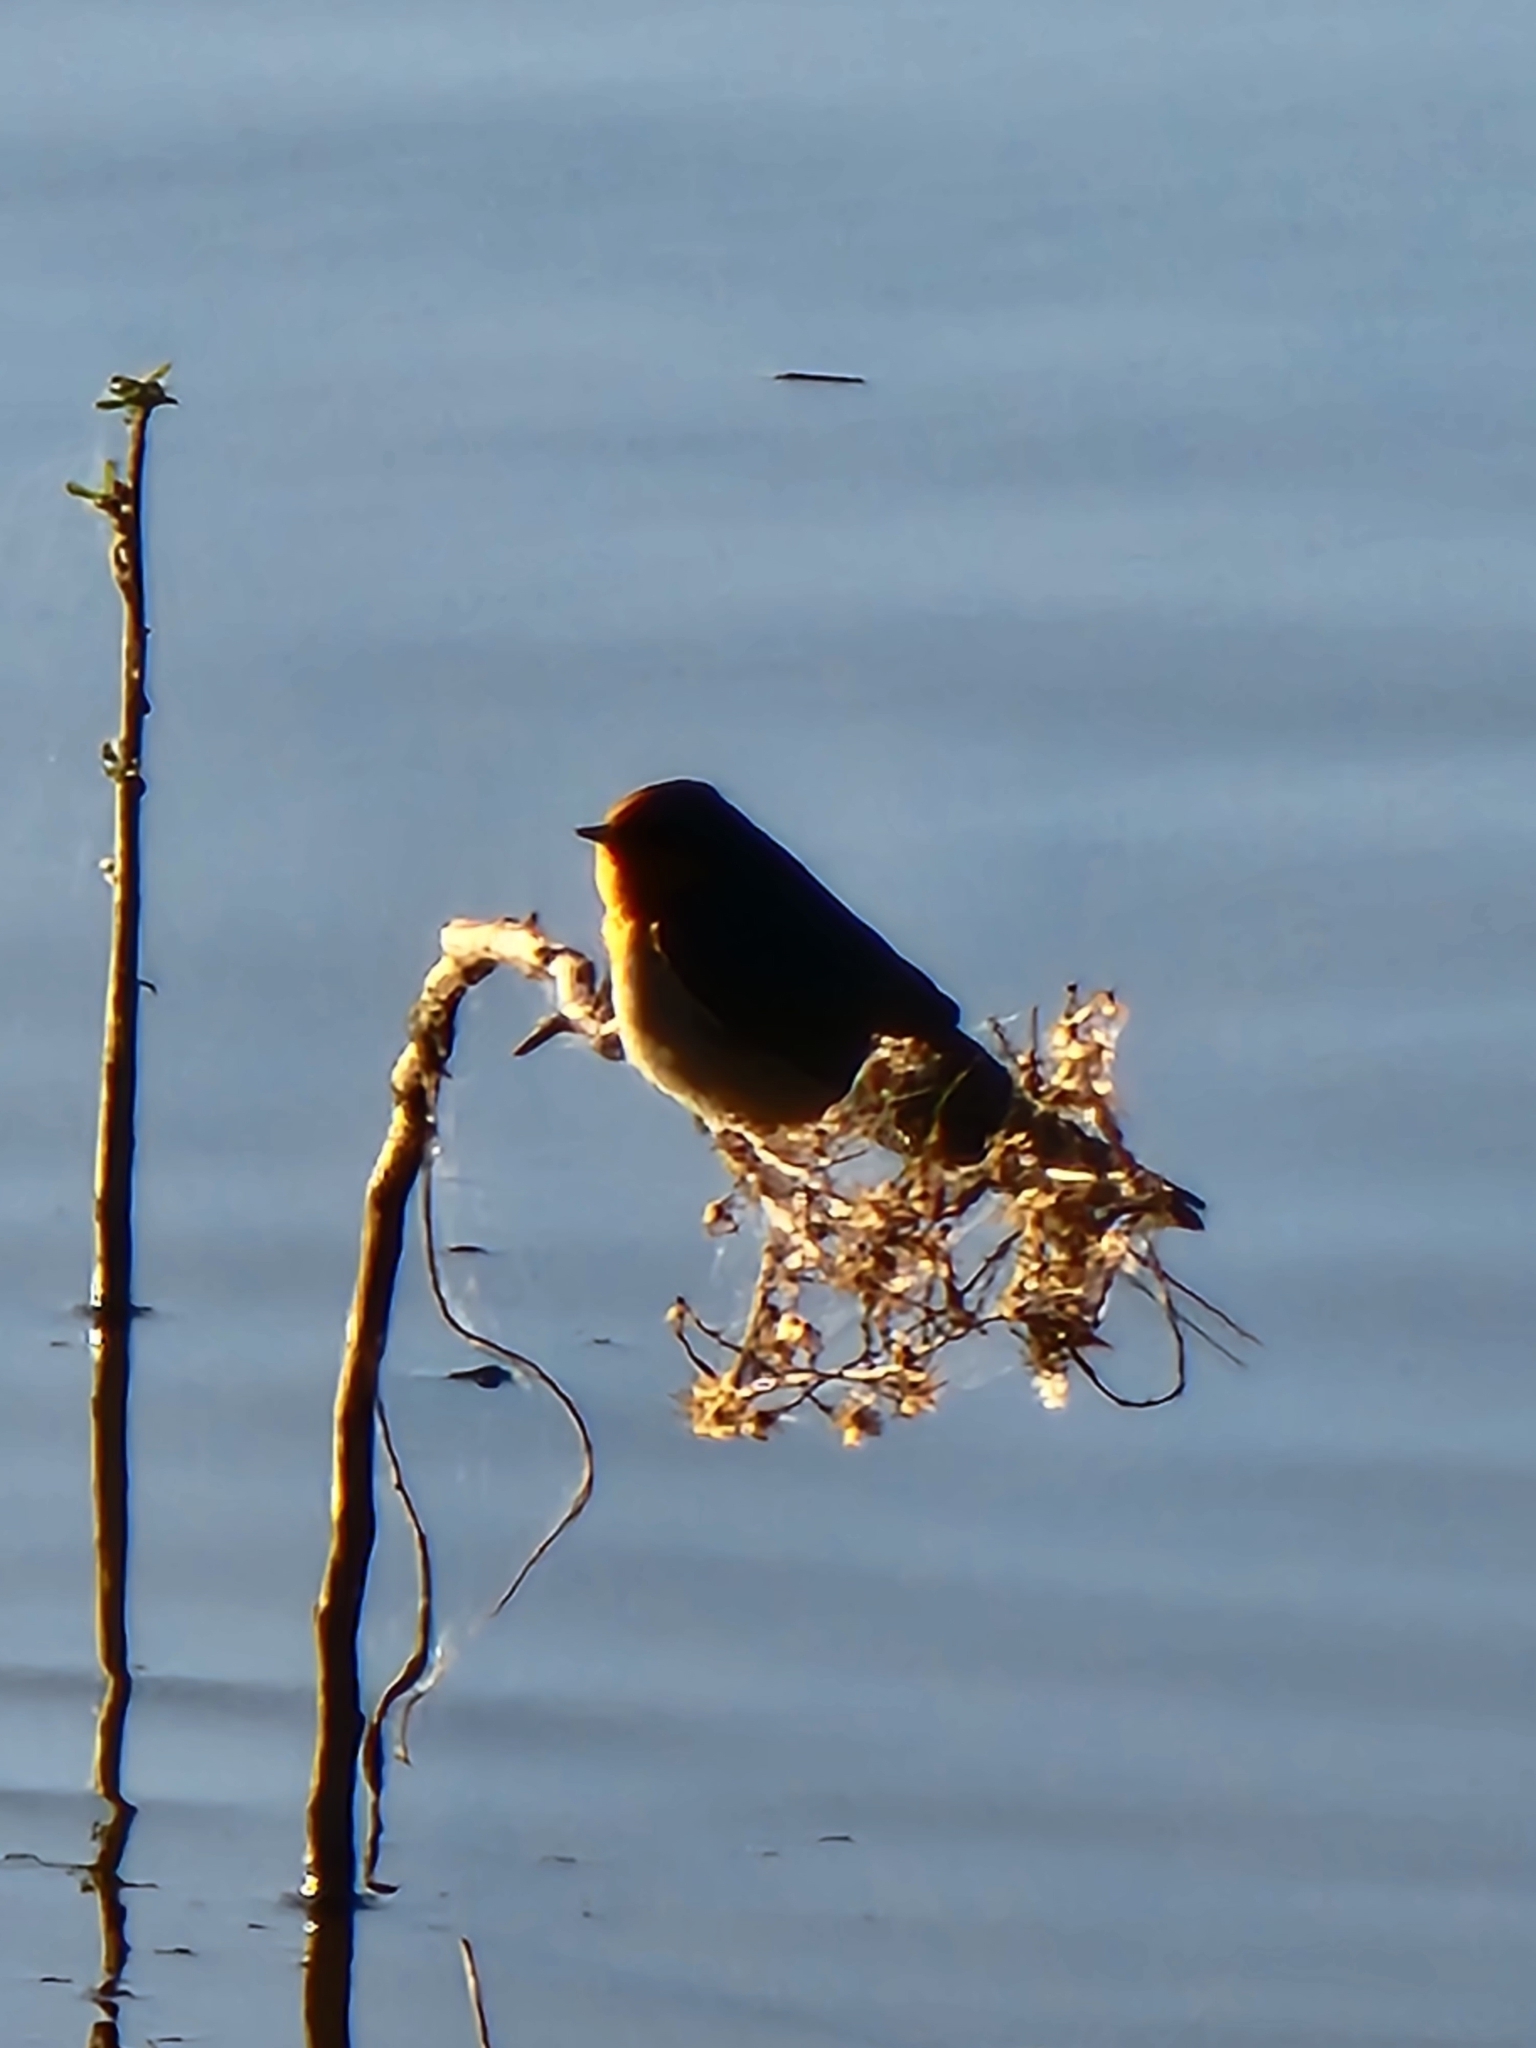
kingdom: Animalia
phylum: Chordata
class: Aves
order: Passeriformes
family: Hirundinidae
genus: Hirundo
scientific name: Hirundo neoxena
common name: Welcome swallow
